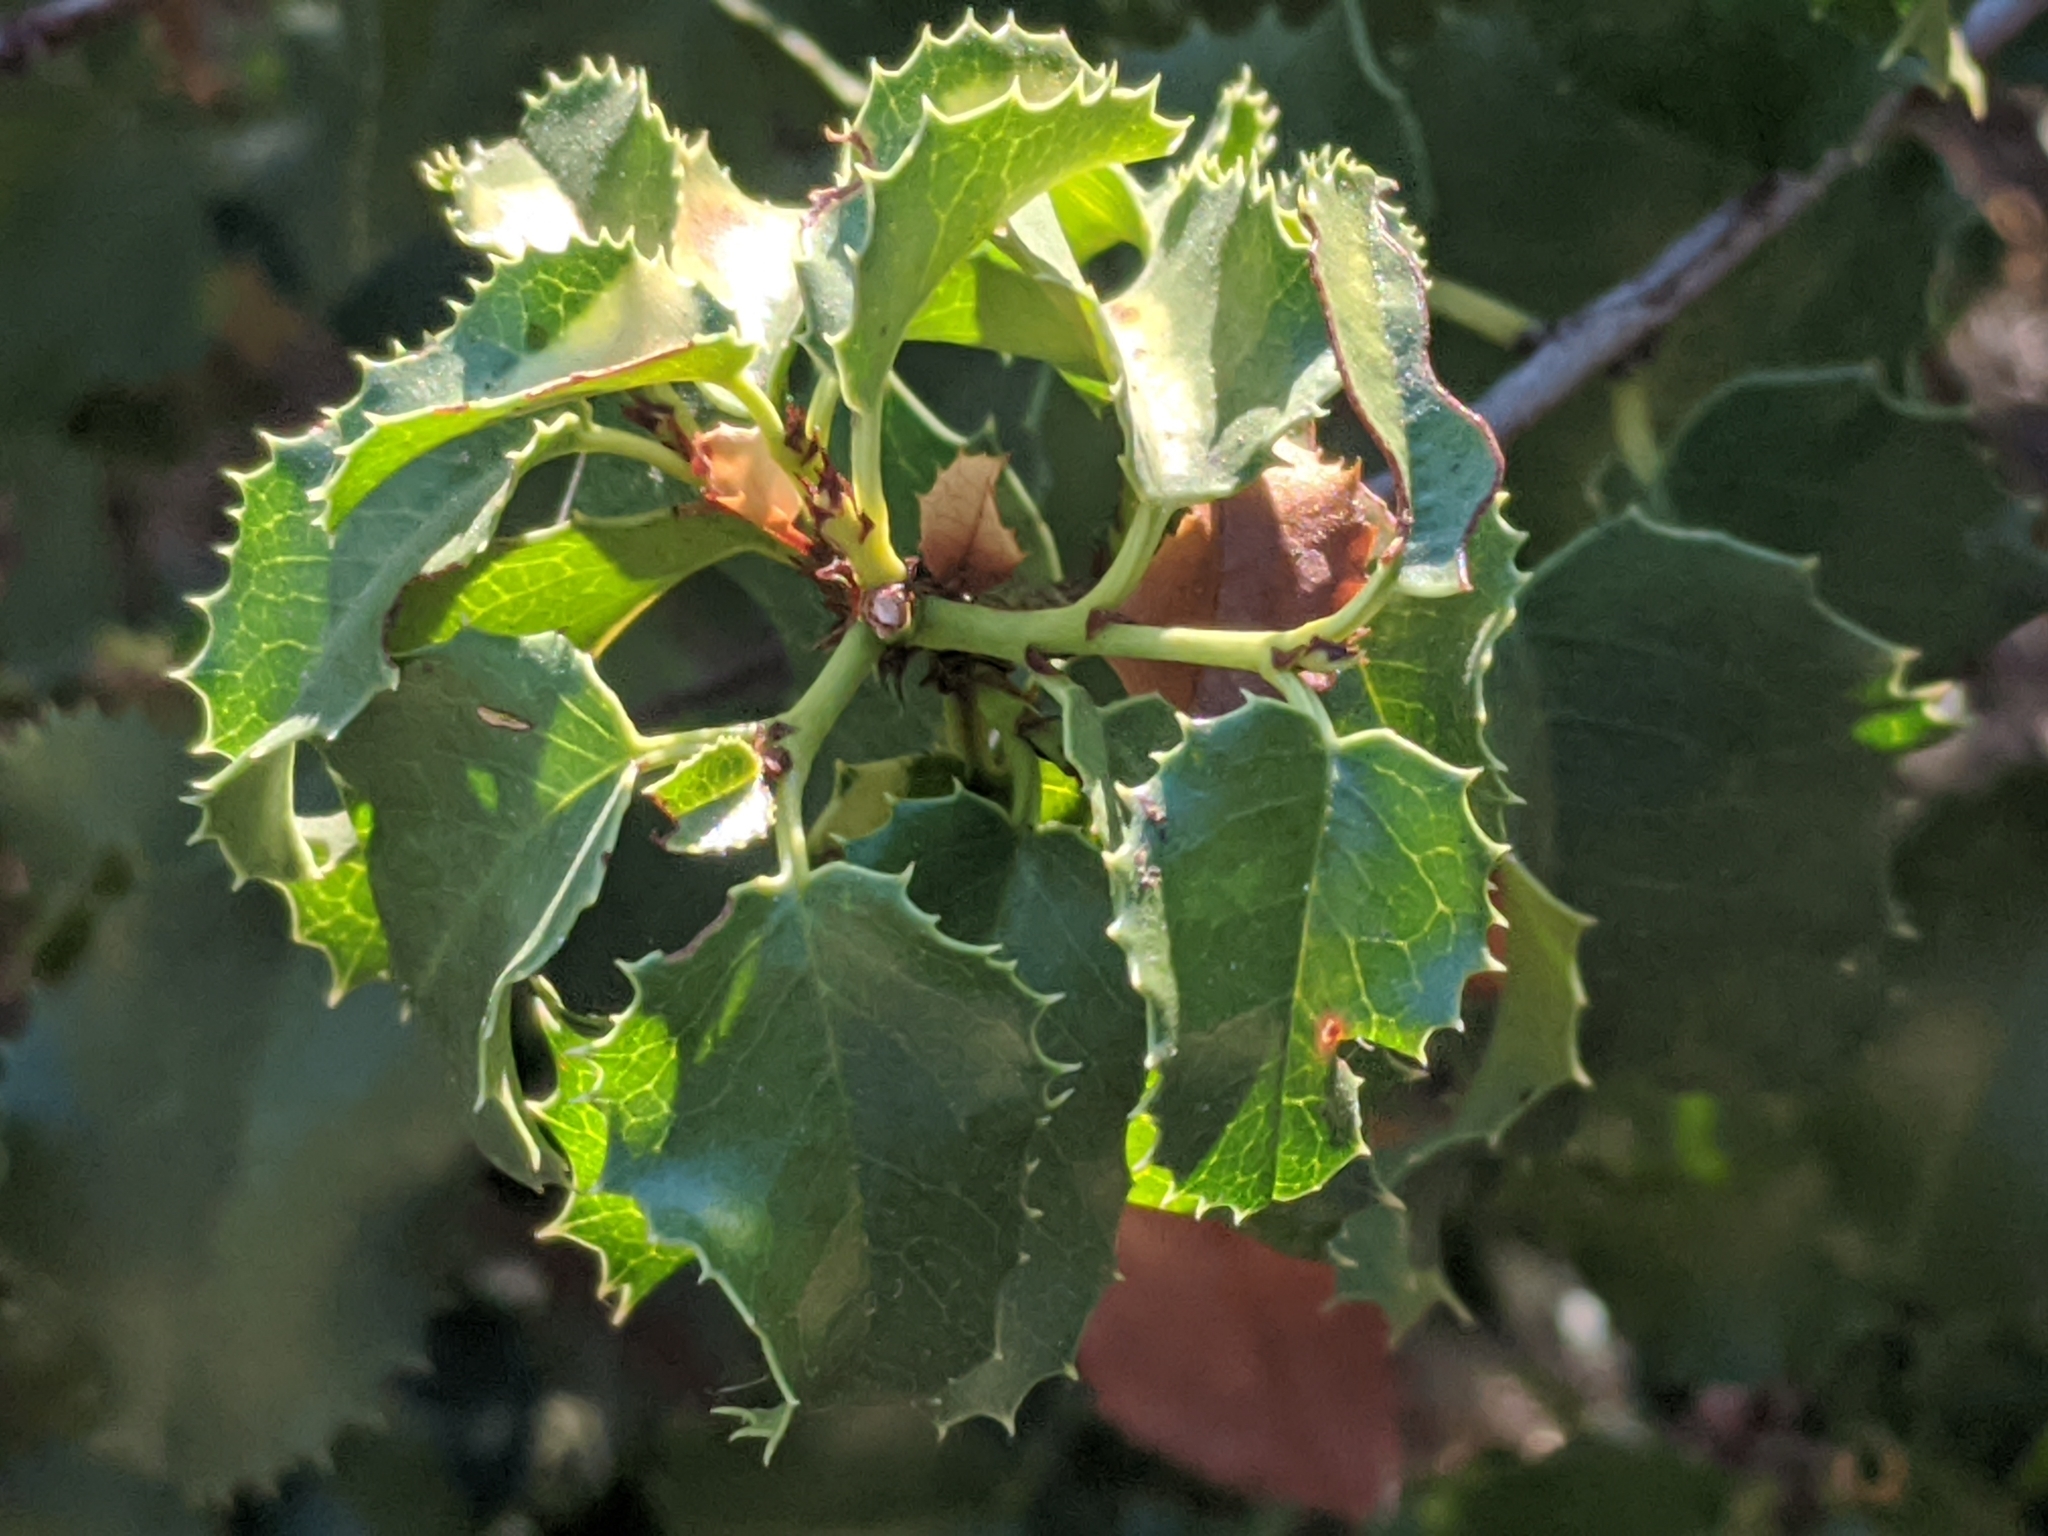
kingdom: Plantae
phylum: Tracheophyta
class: Magnoliopsida
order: Rosales
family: Rosaceae
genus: Prunus
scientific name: Prunus ilicifolia
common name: Hollyleaf cherry
